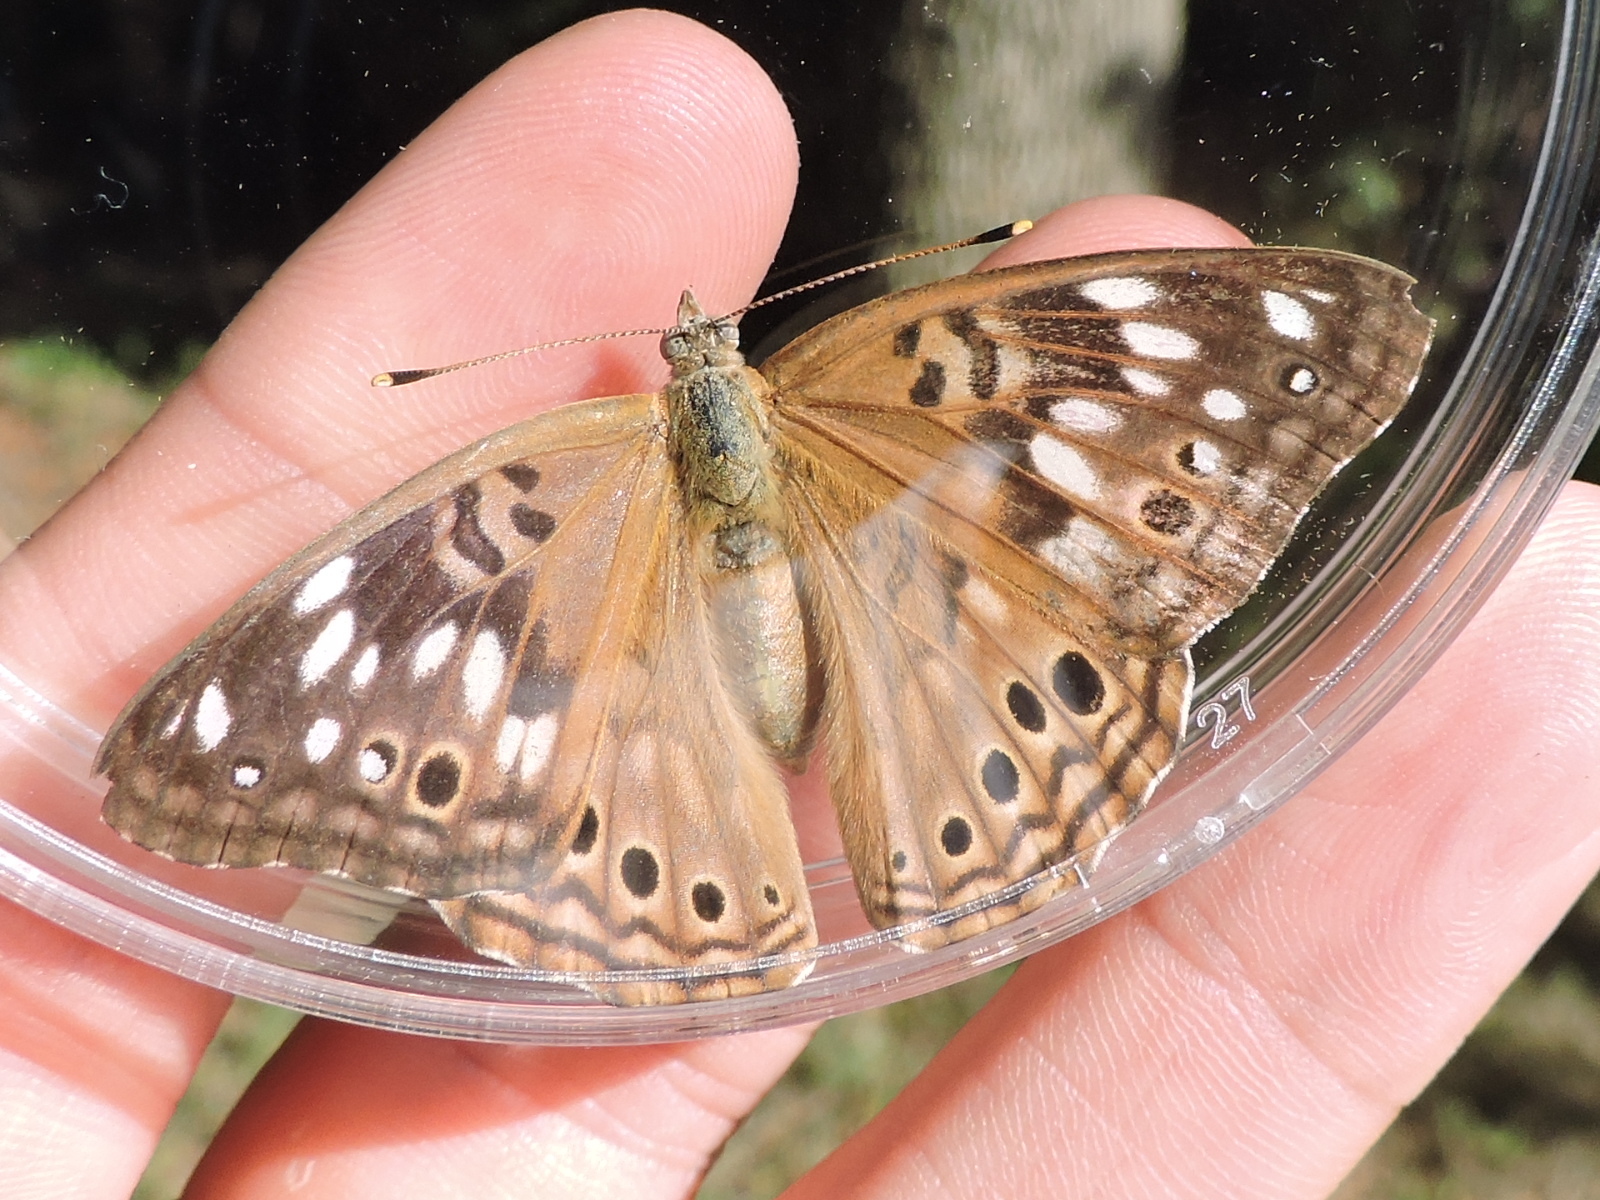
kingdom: Animalia
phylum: Arthropoda
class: Insecta
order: Lepidoptera
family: Nymphalidae
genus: Asterocampa
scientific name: Asterocampa celtis
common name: Hackberry emperor
